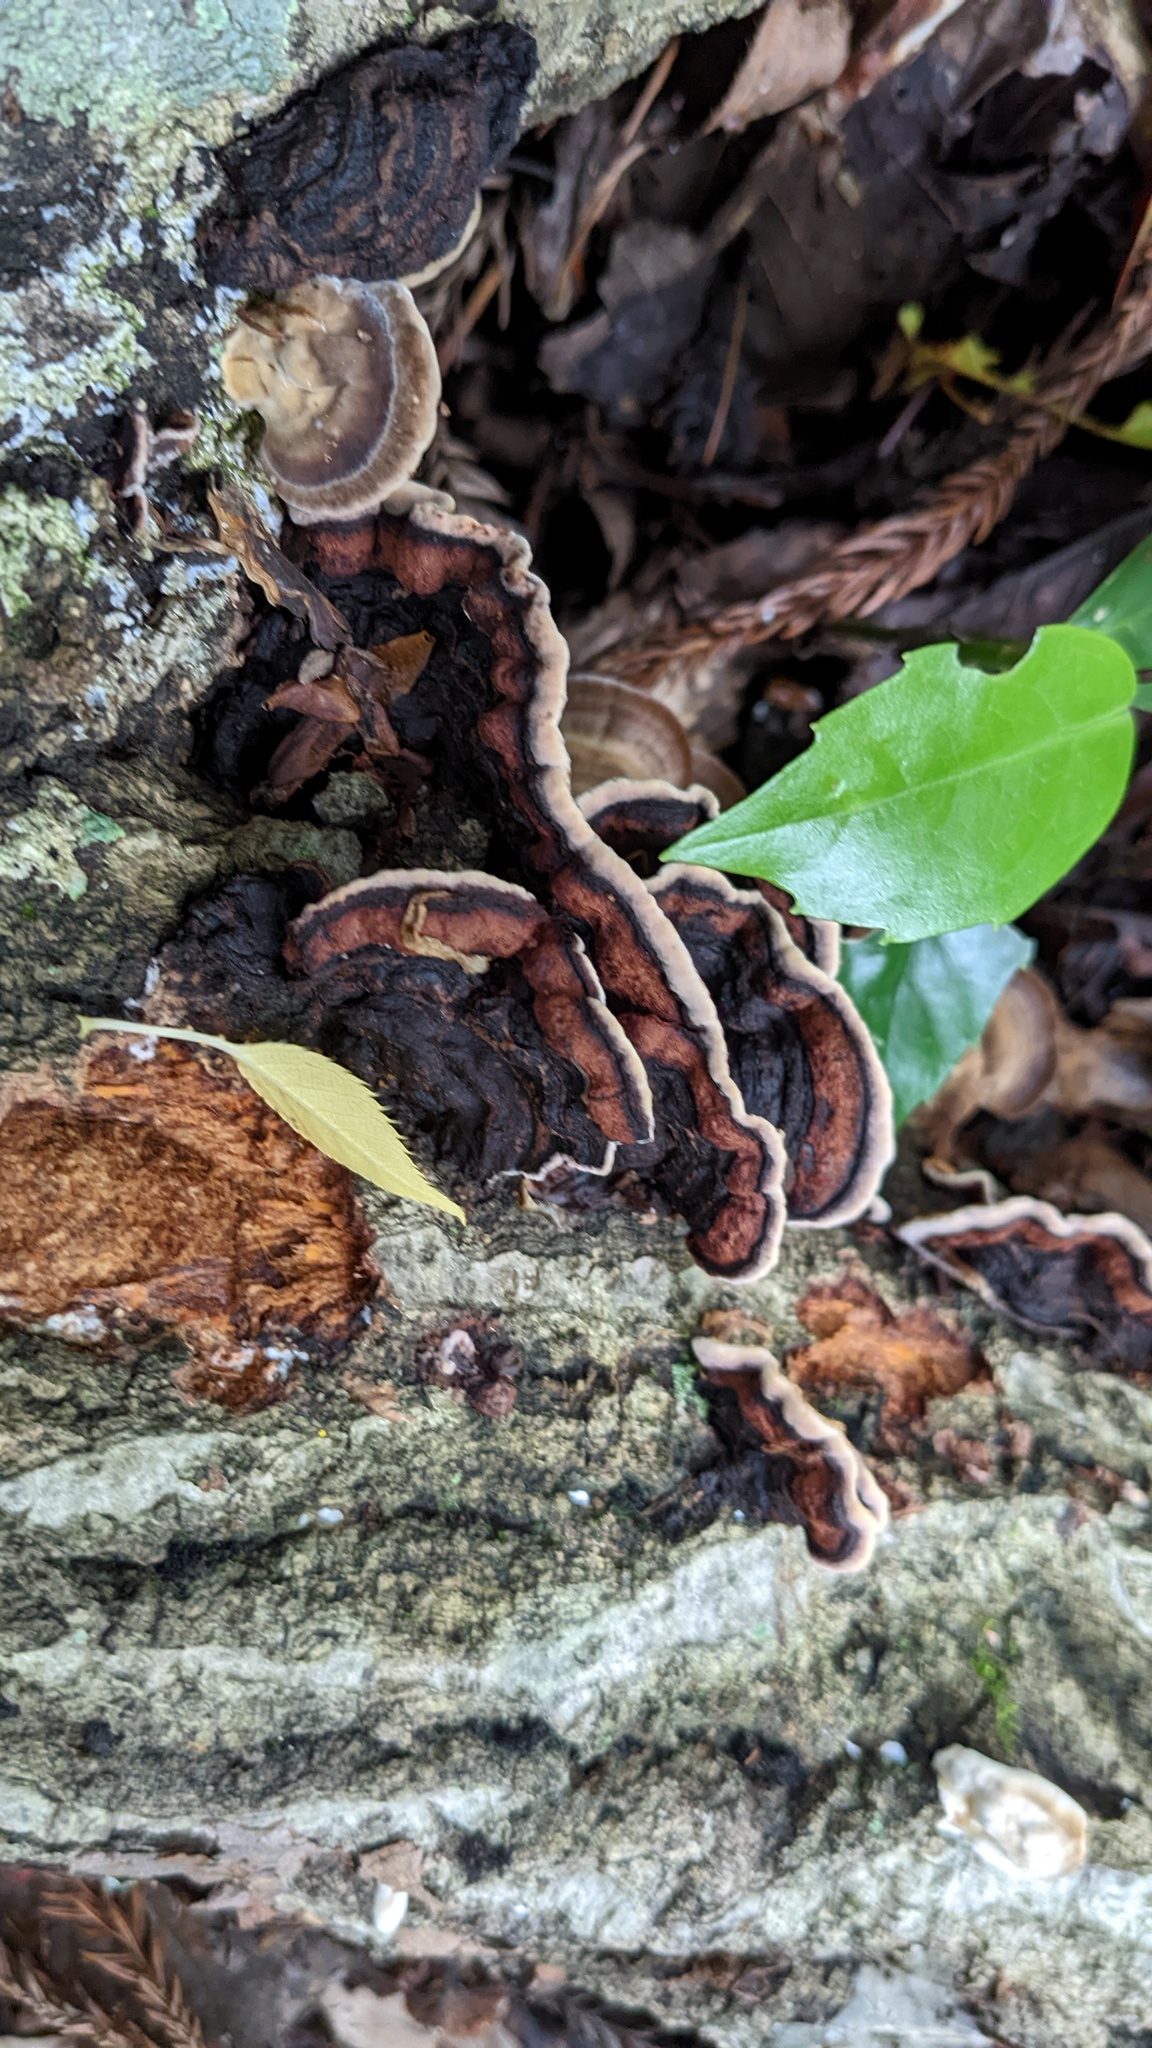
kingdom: Fungi
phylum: Basidiomycota
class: Agaricomycetes
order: Corticiales
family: Punctulariaceae
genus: Punctularia
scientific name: Punctularia strigosozonata
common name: White-rot fungus
